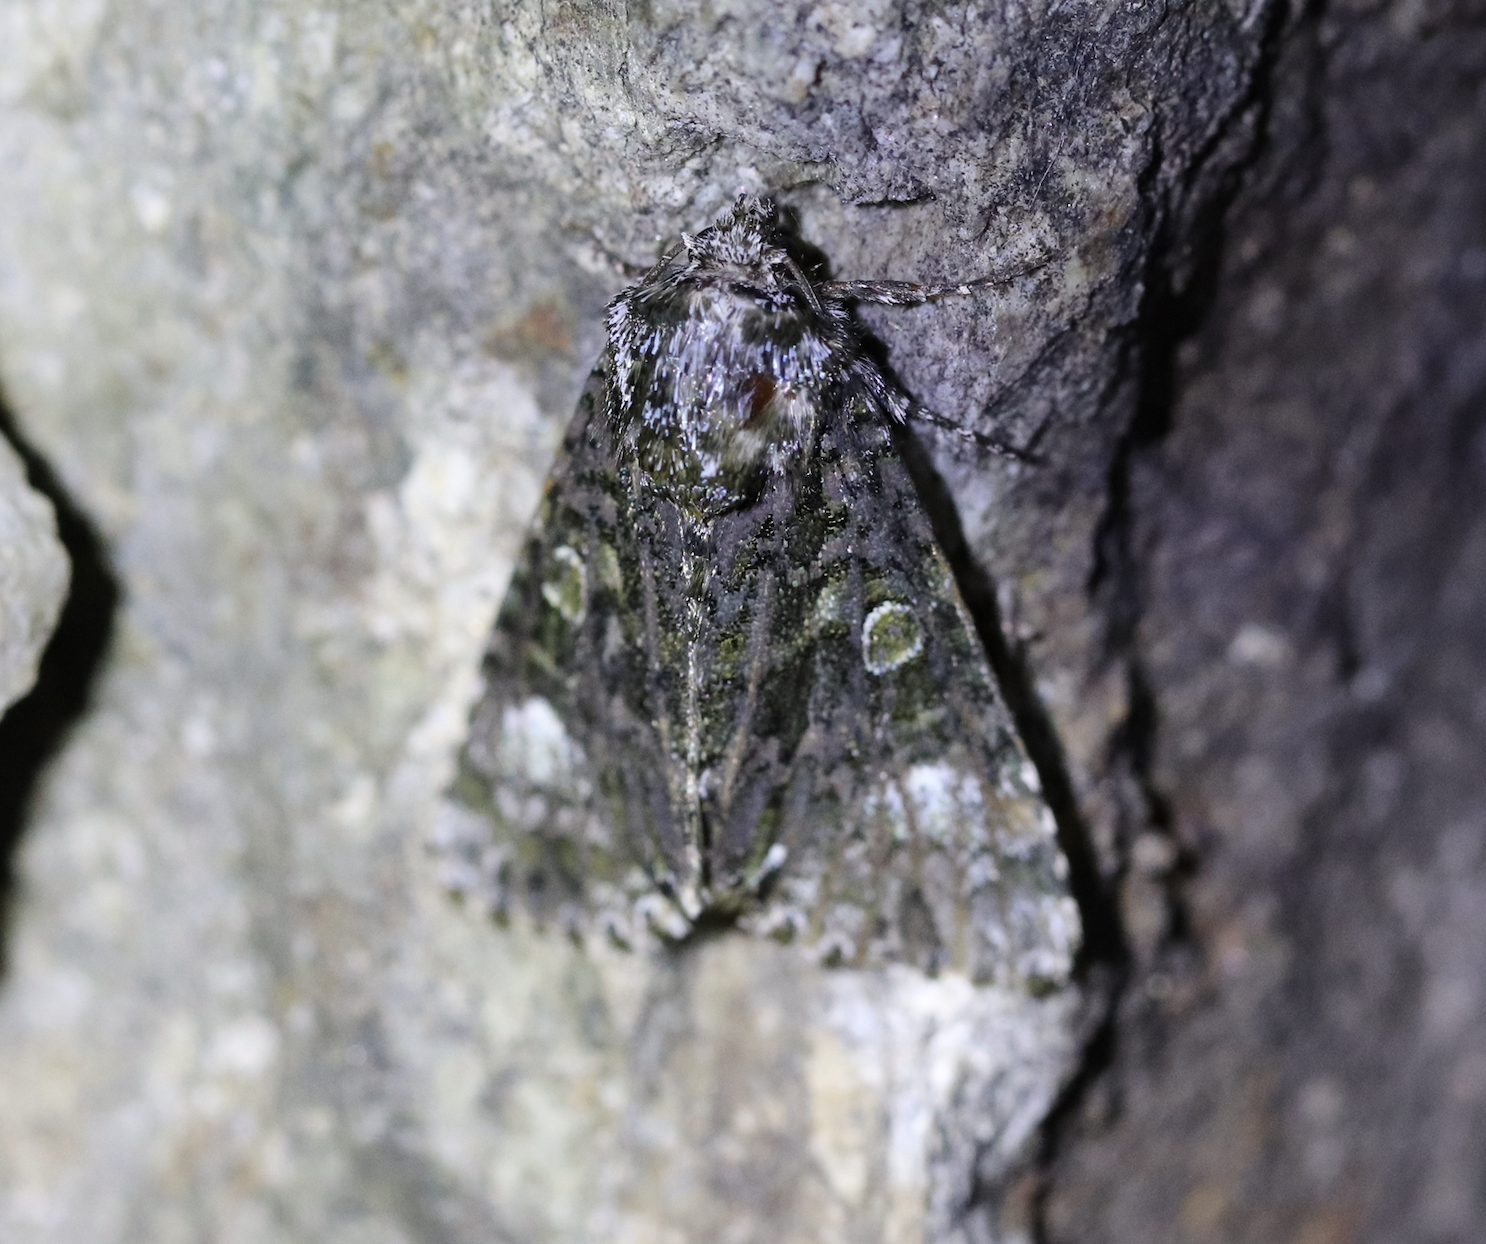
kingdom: Animalia
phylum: Arthropoda
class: Insecta
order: Lepidoptera
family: Noctuidae
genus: Craniophora
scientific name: Craniophora ligustri
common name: Coronet
